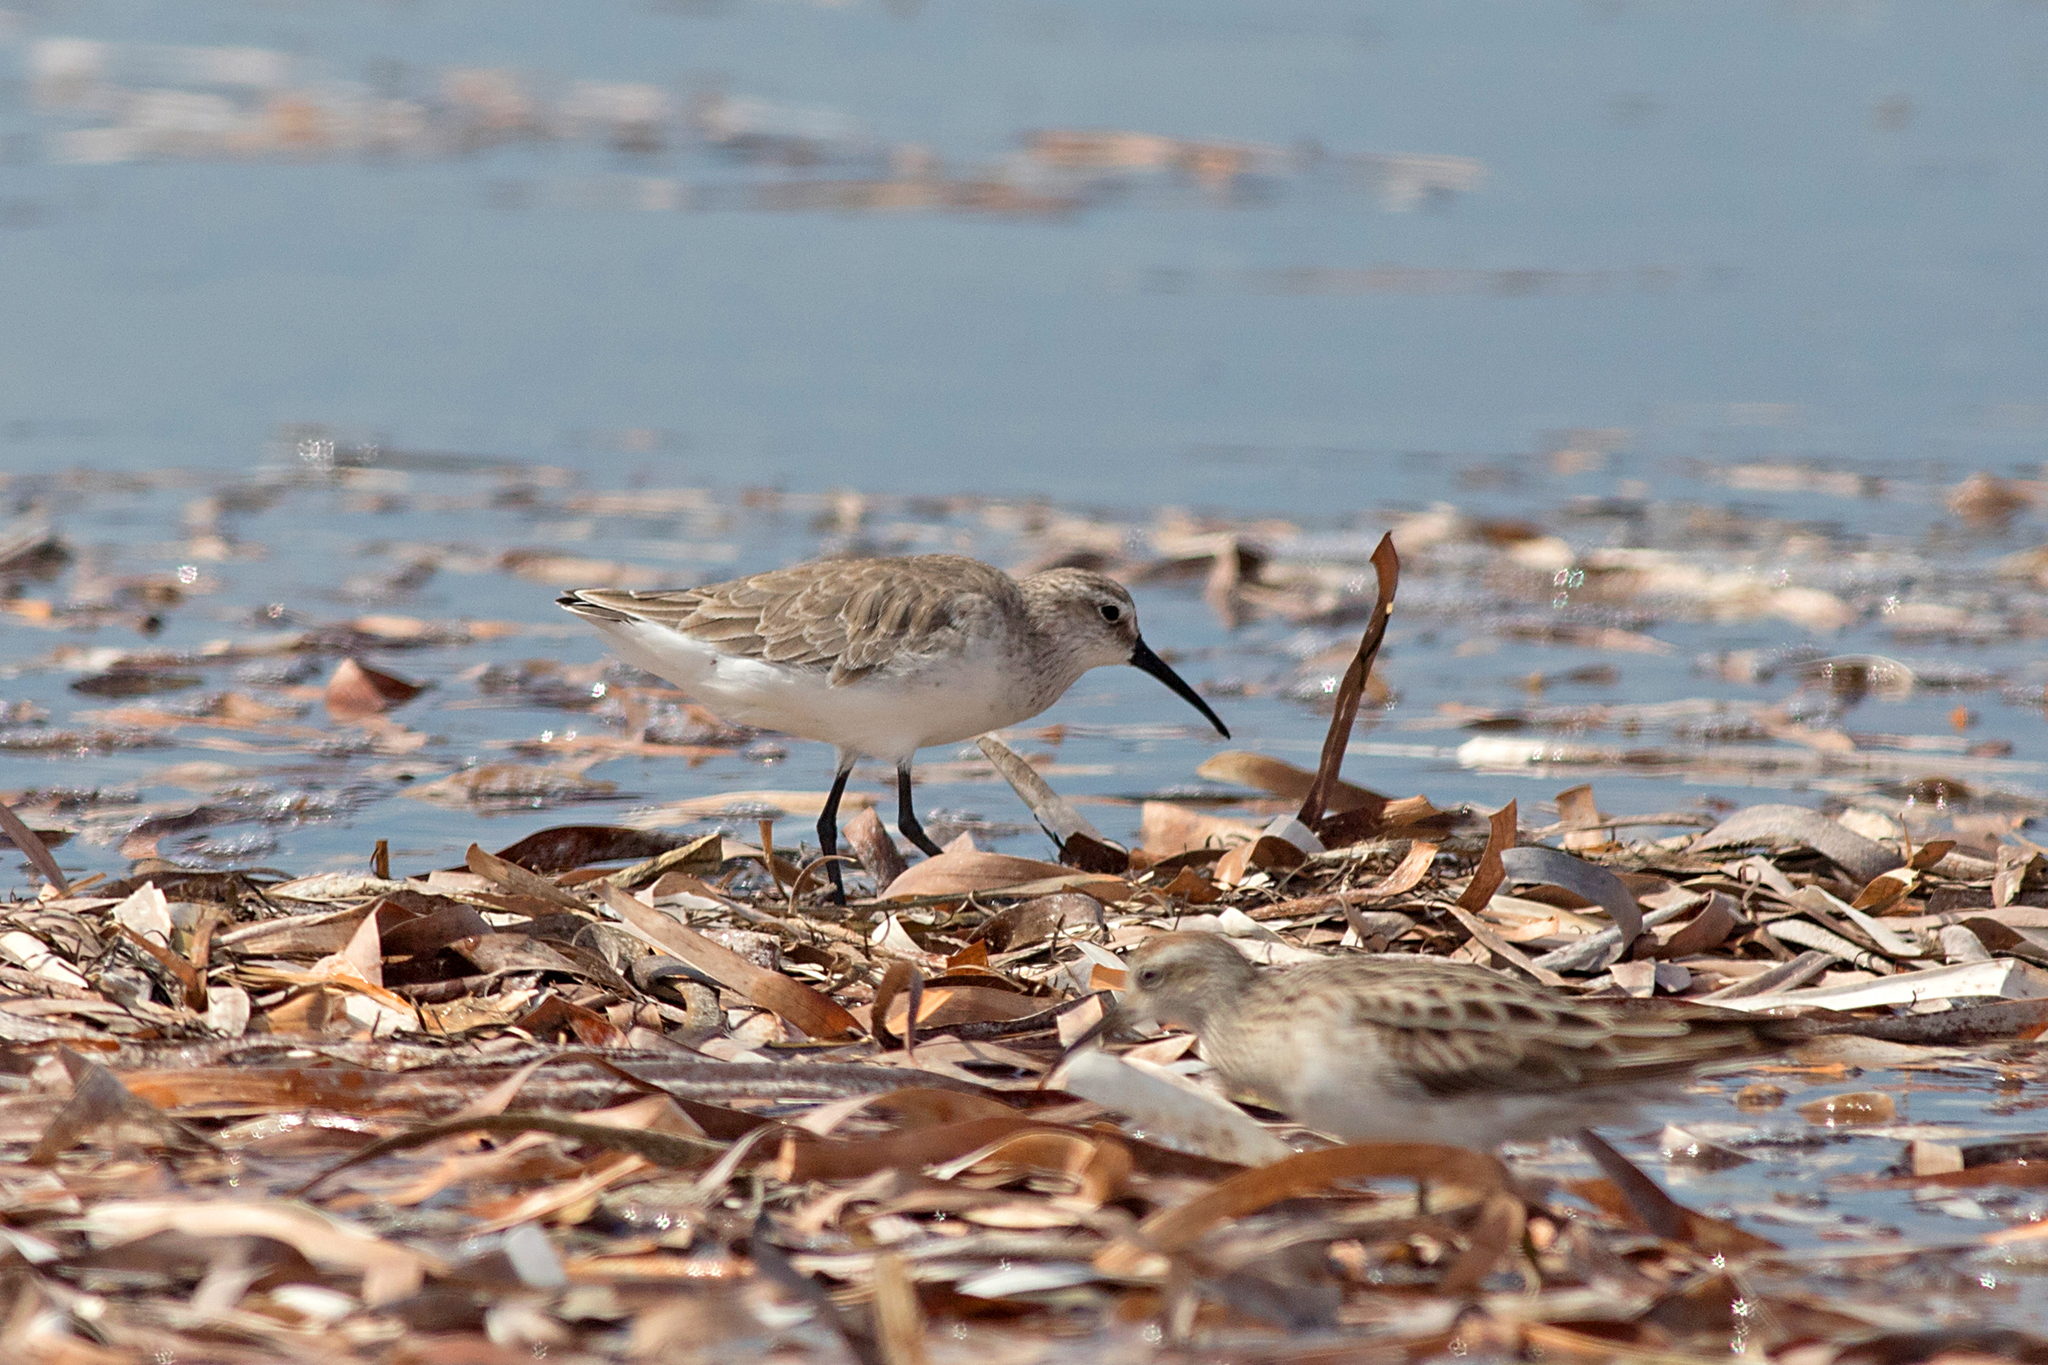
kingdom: Animalia
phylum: Chordata
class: Aves
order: Charadriiformes
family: Scolopacidae
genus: Calidris
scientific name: Calidris ferruginea
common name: Curlew sandpiper
